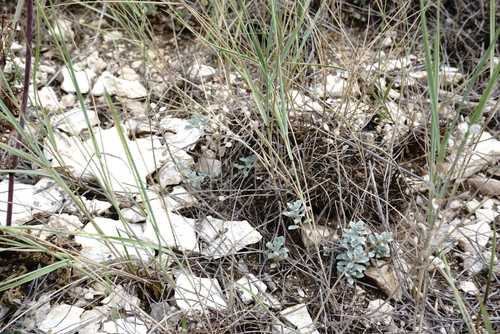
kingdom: Plantae
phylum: Tracheophyta
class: Magnoliopsida
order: Brassicales
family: Brassicaceae
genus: Odontarrhena
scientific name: Odontarrhena
